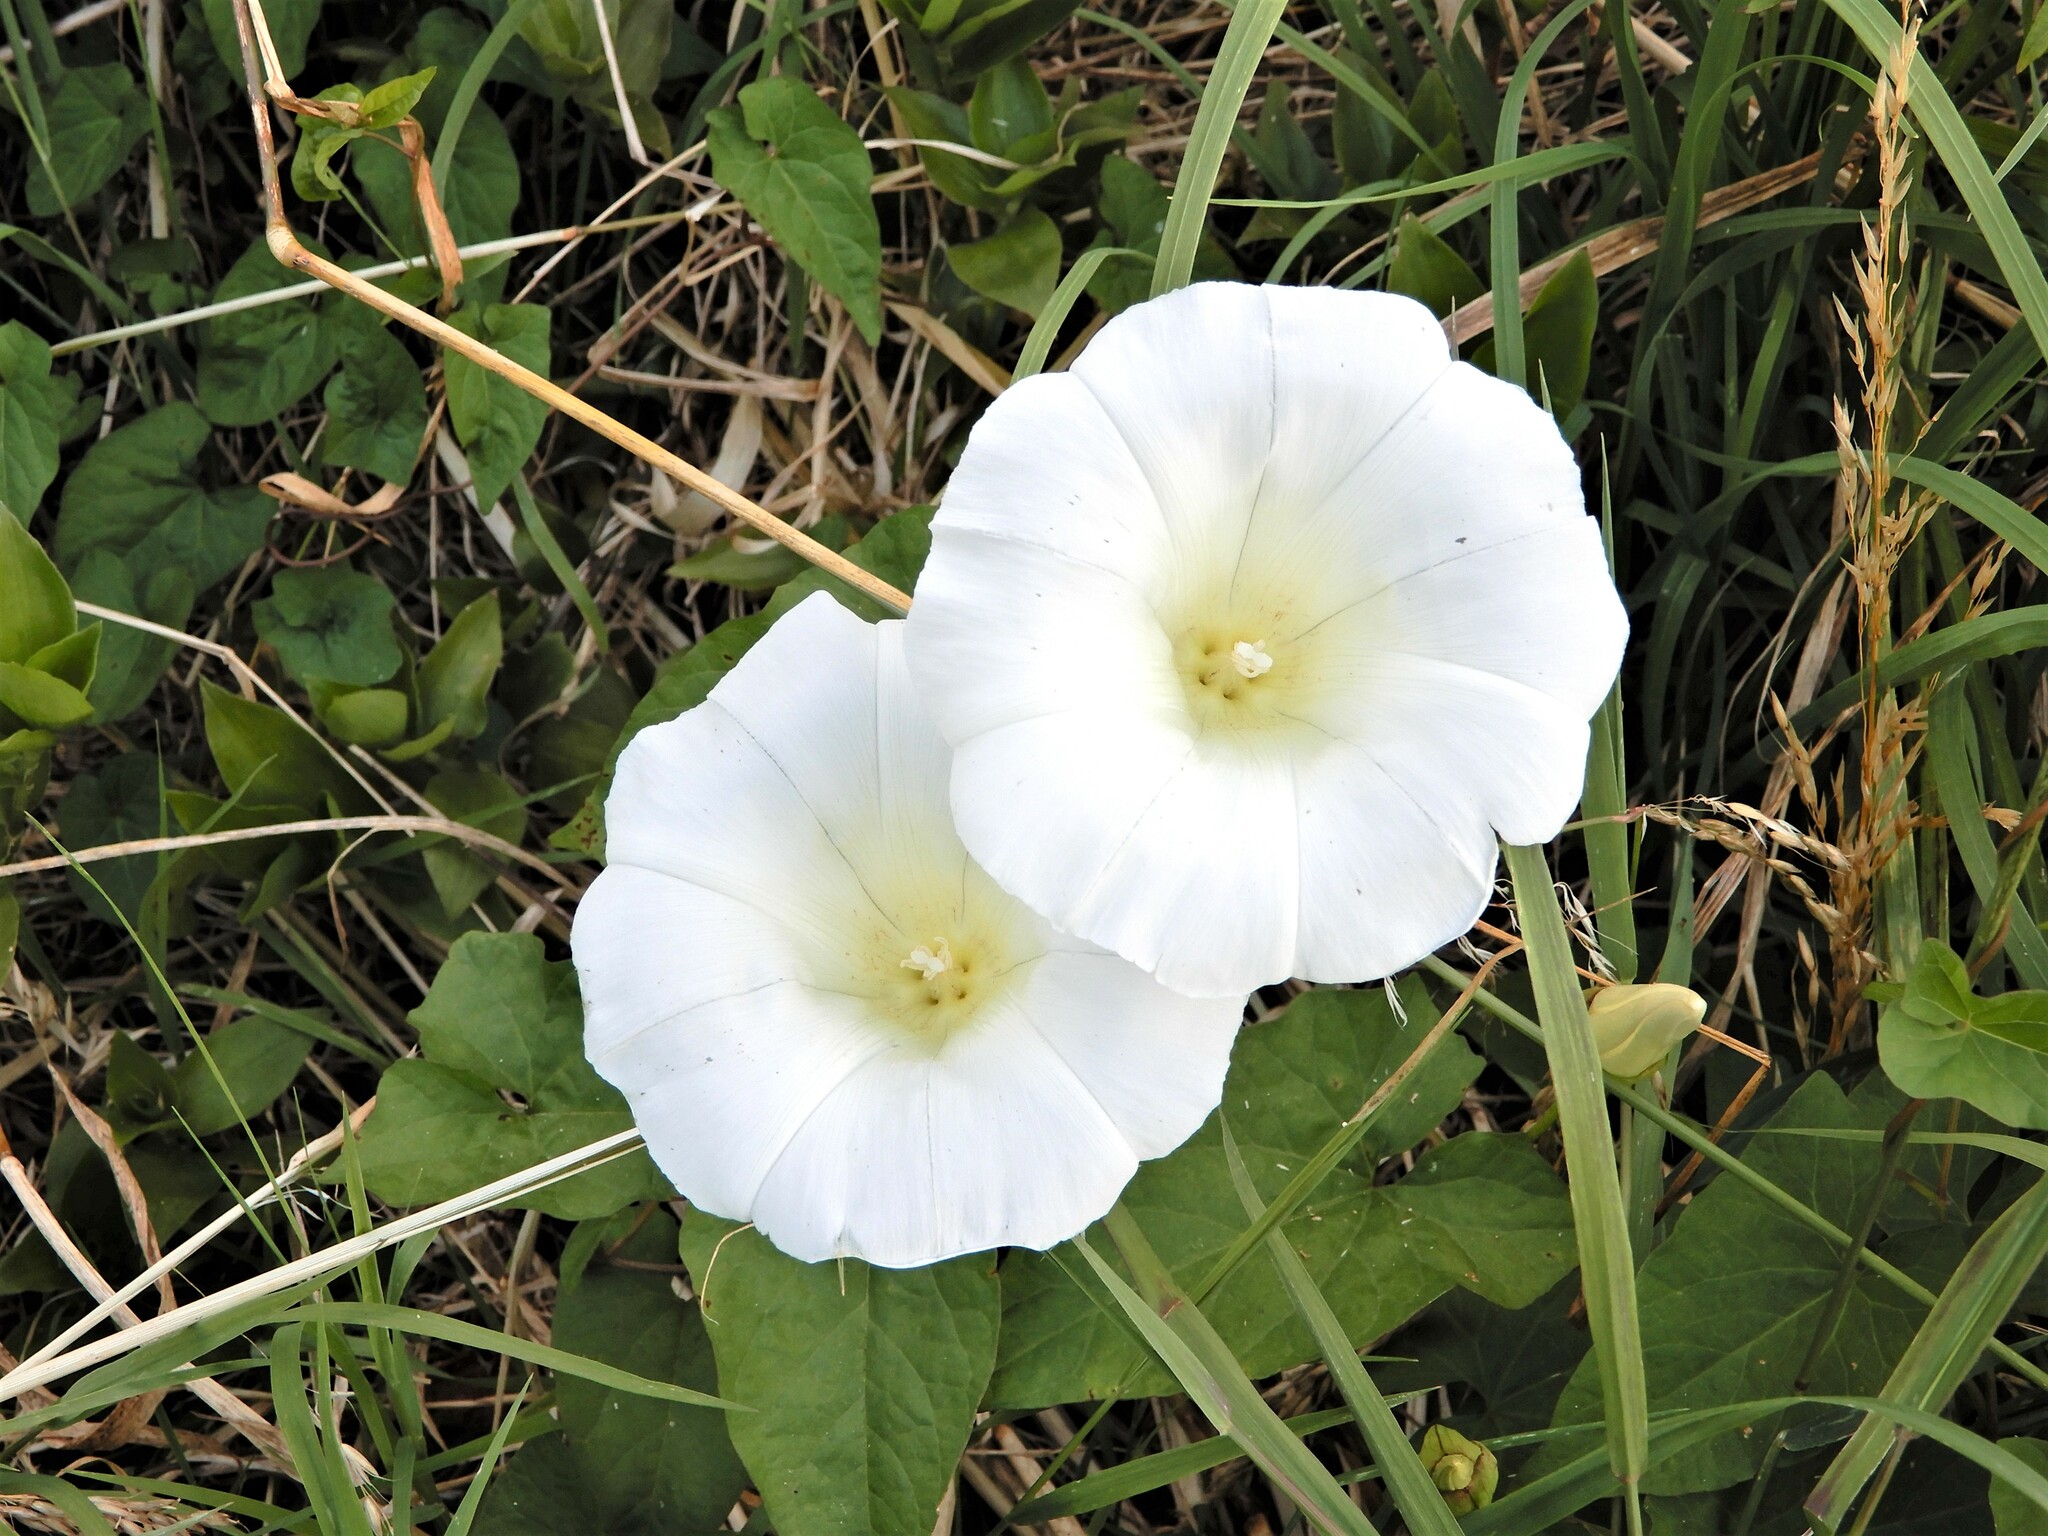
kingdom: Plantae
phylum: Tracheophyta
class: Magnoliopsida
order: Solanales
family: Convolvulaceae
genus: Calystegia
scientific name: Calystegia silvatica
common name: Large bindweed
